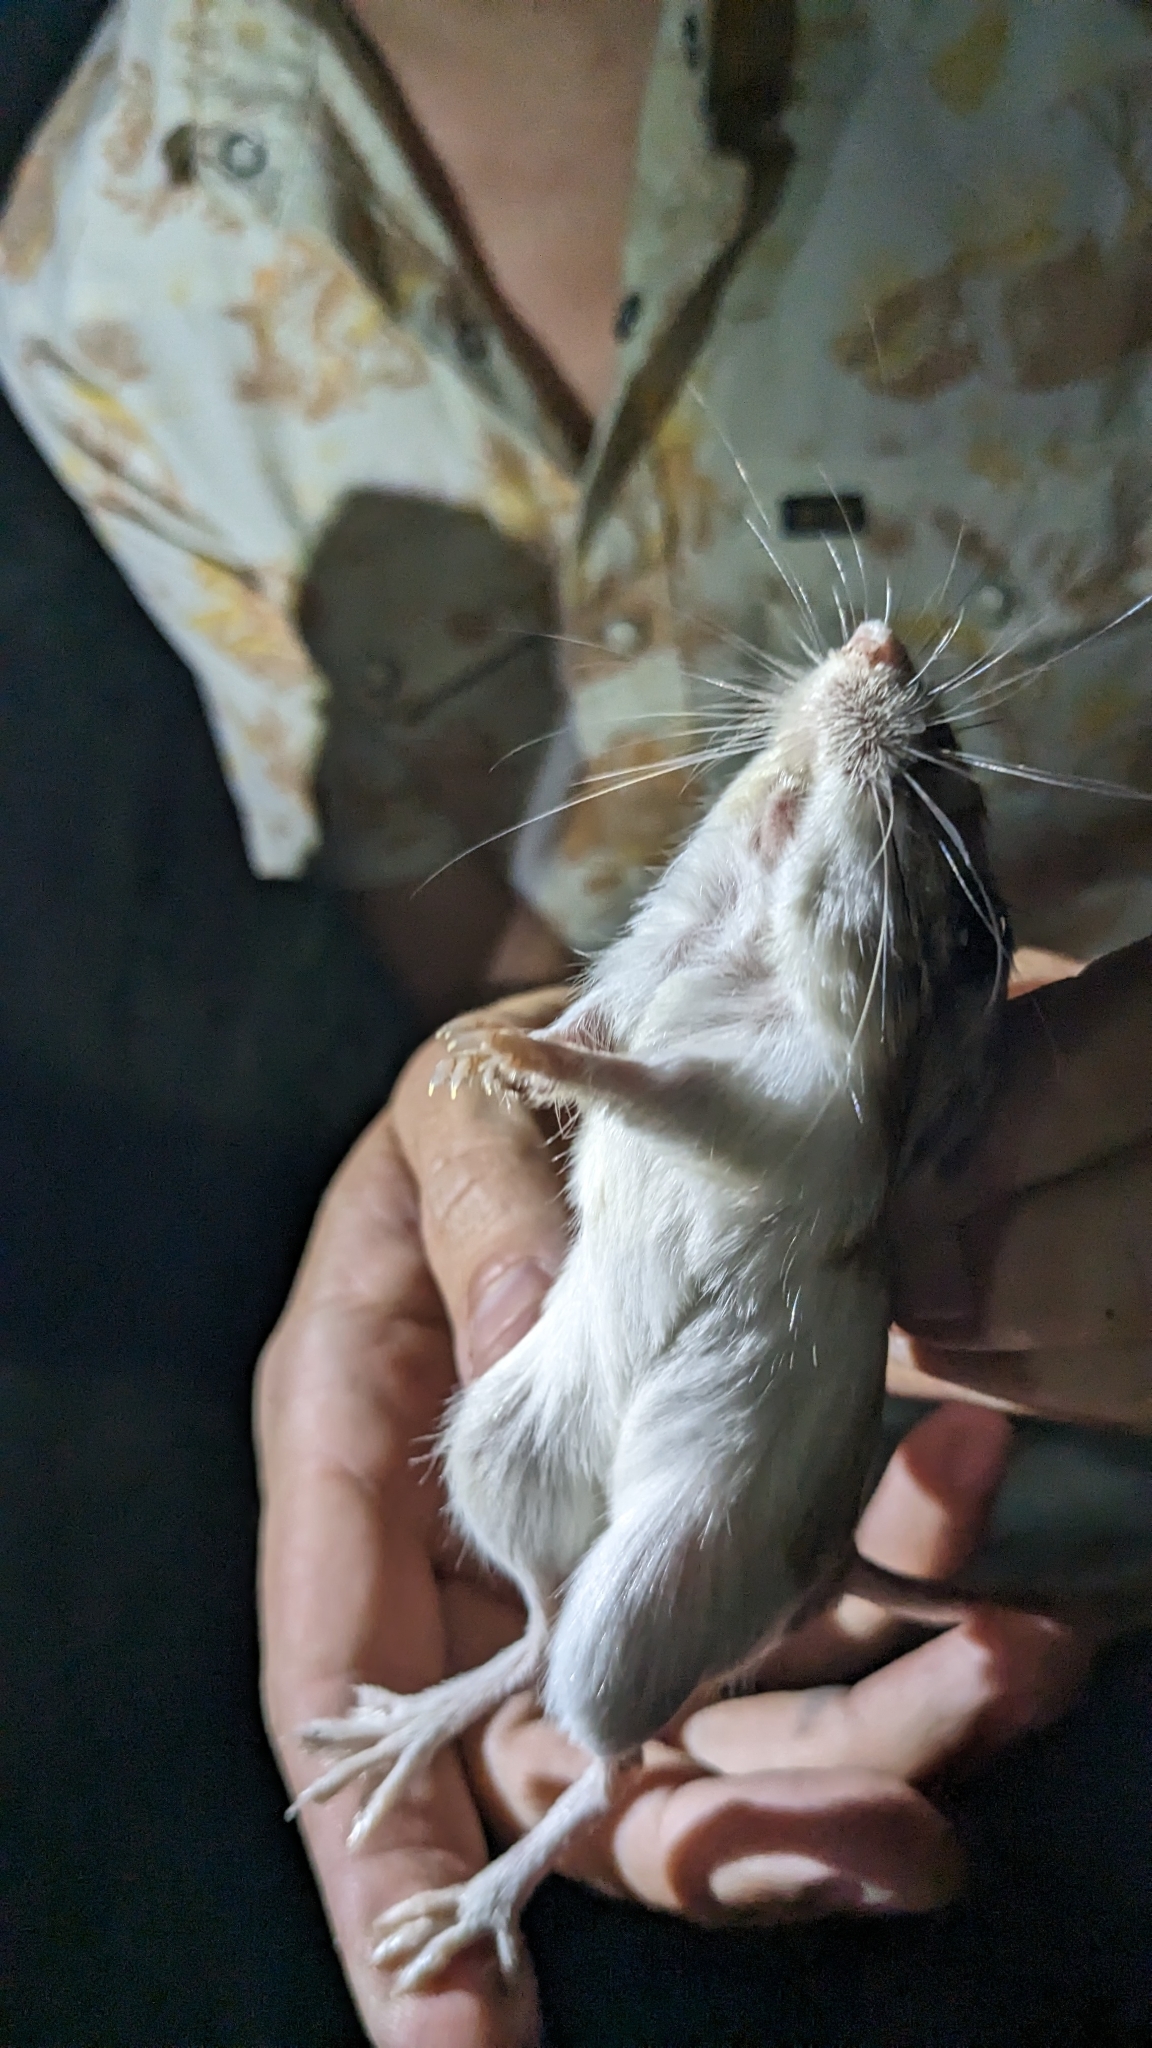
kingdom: Animalia
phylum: Chordata
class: Mammalia
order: Rodentia
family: Heteromyidae
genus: Dipodomys
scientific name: Dipodomys merriami
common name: Merriam's kangaroo rat
